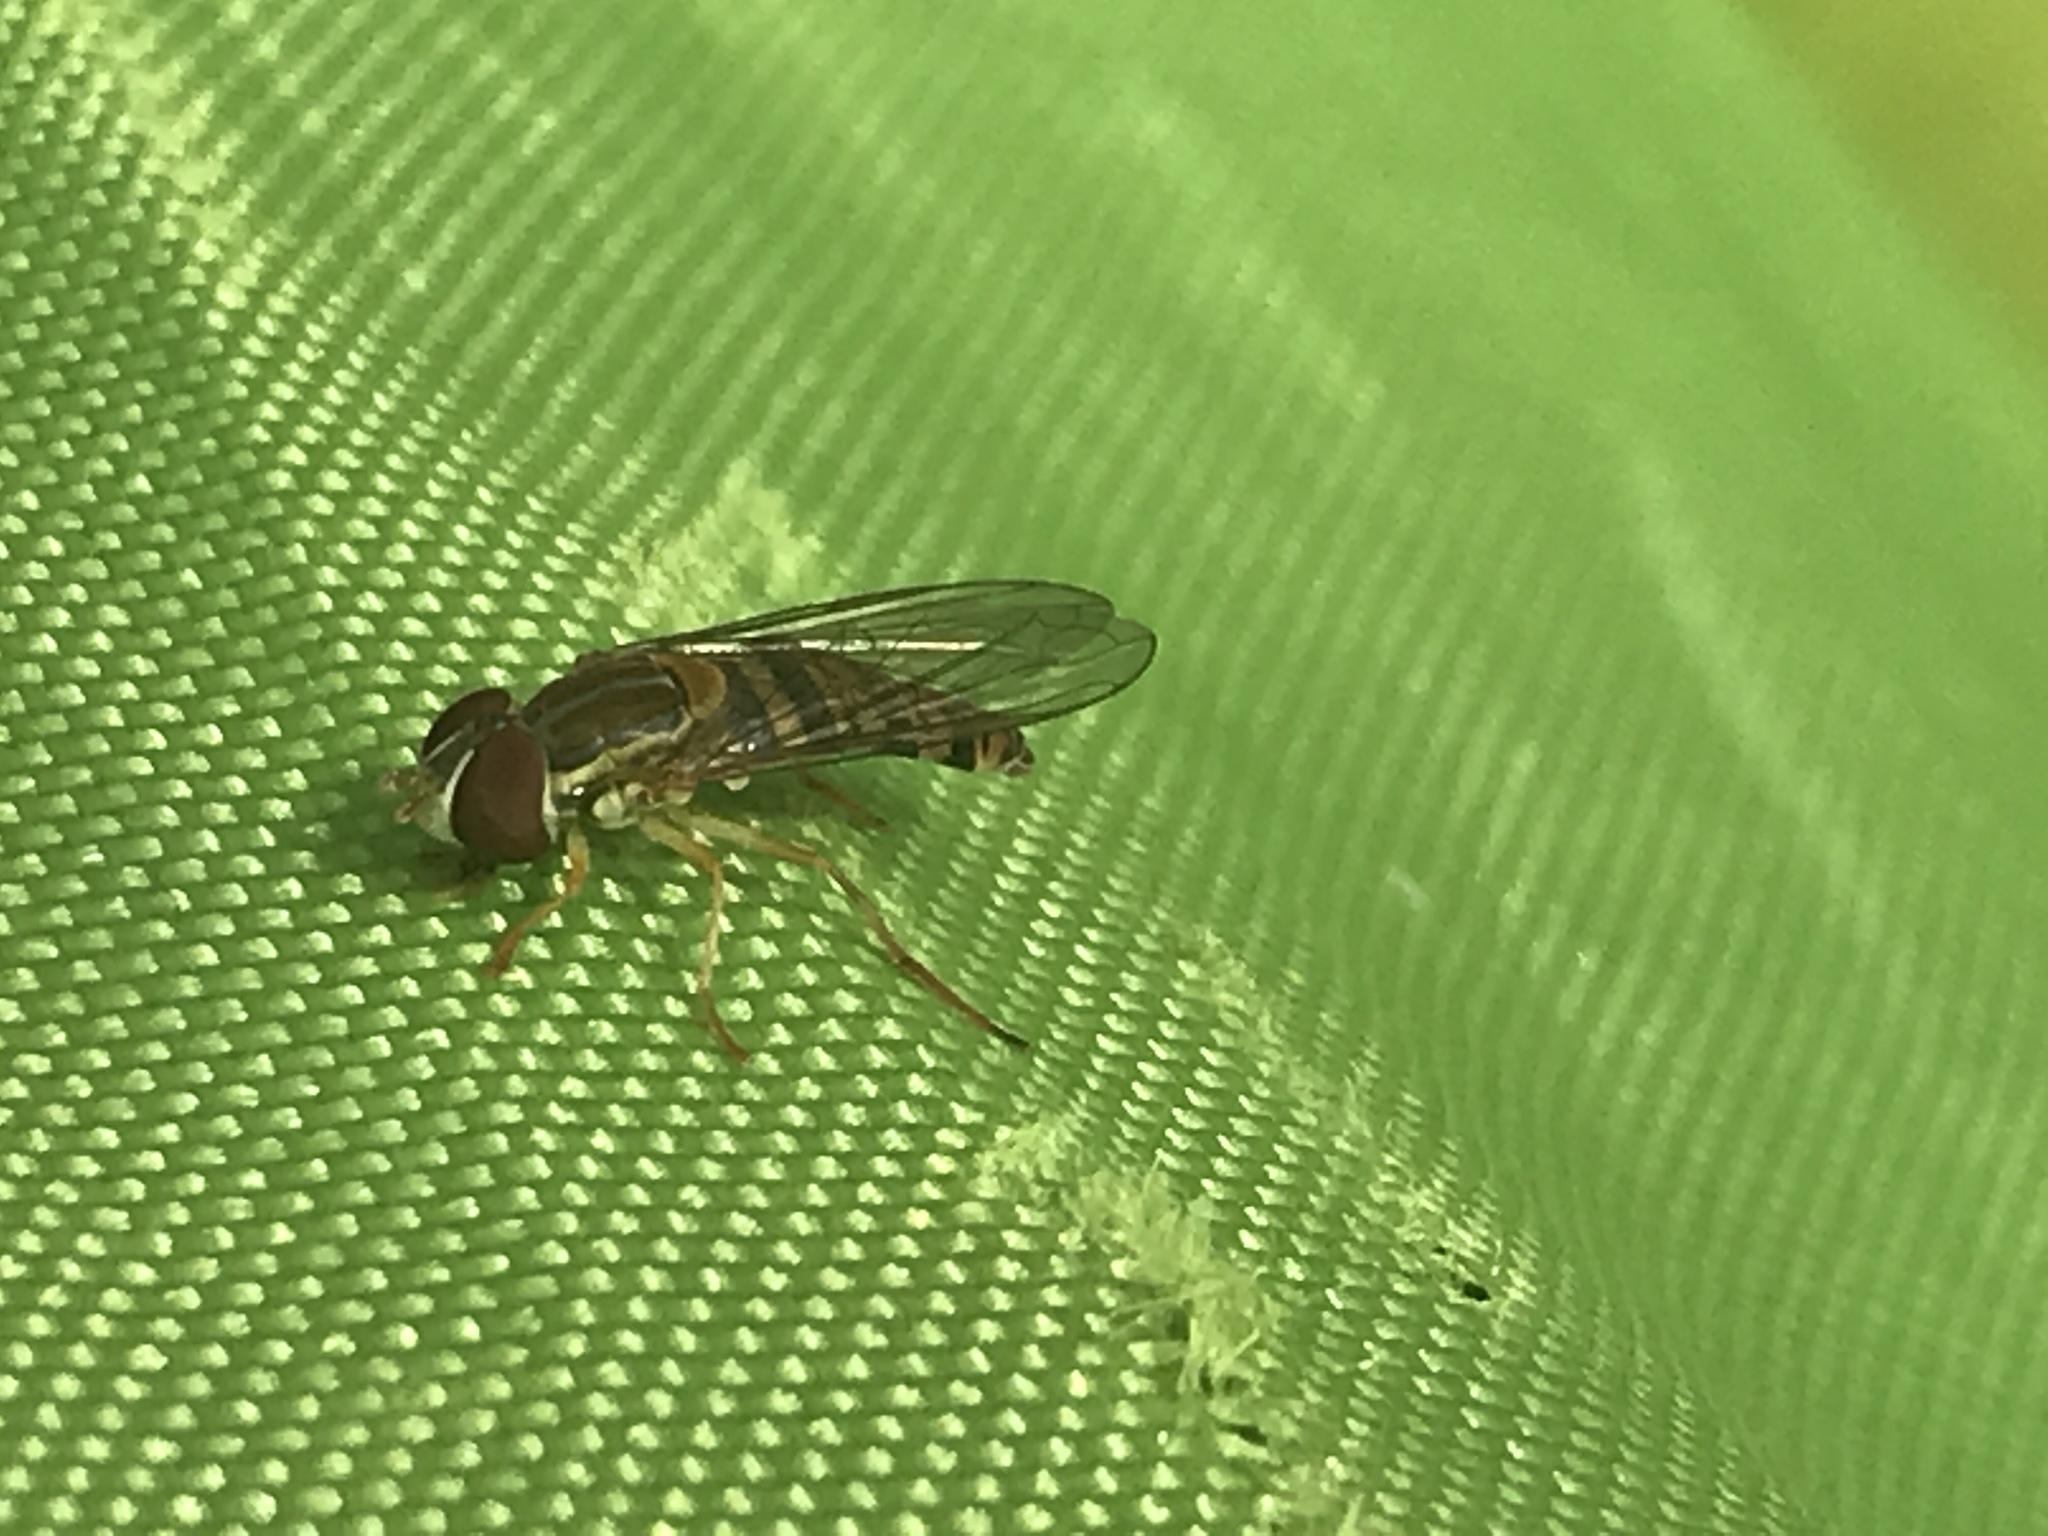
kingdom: Animalia
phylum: Arthropoda
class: Insecta
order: Diptera
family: Syrphidae
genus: Toxomerus
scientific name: Toxomerus politus
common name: Maize calligrapher
